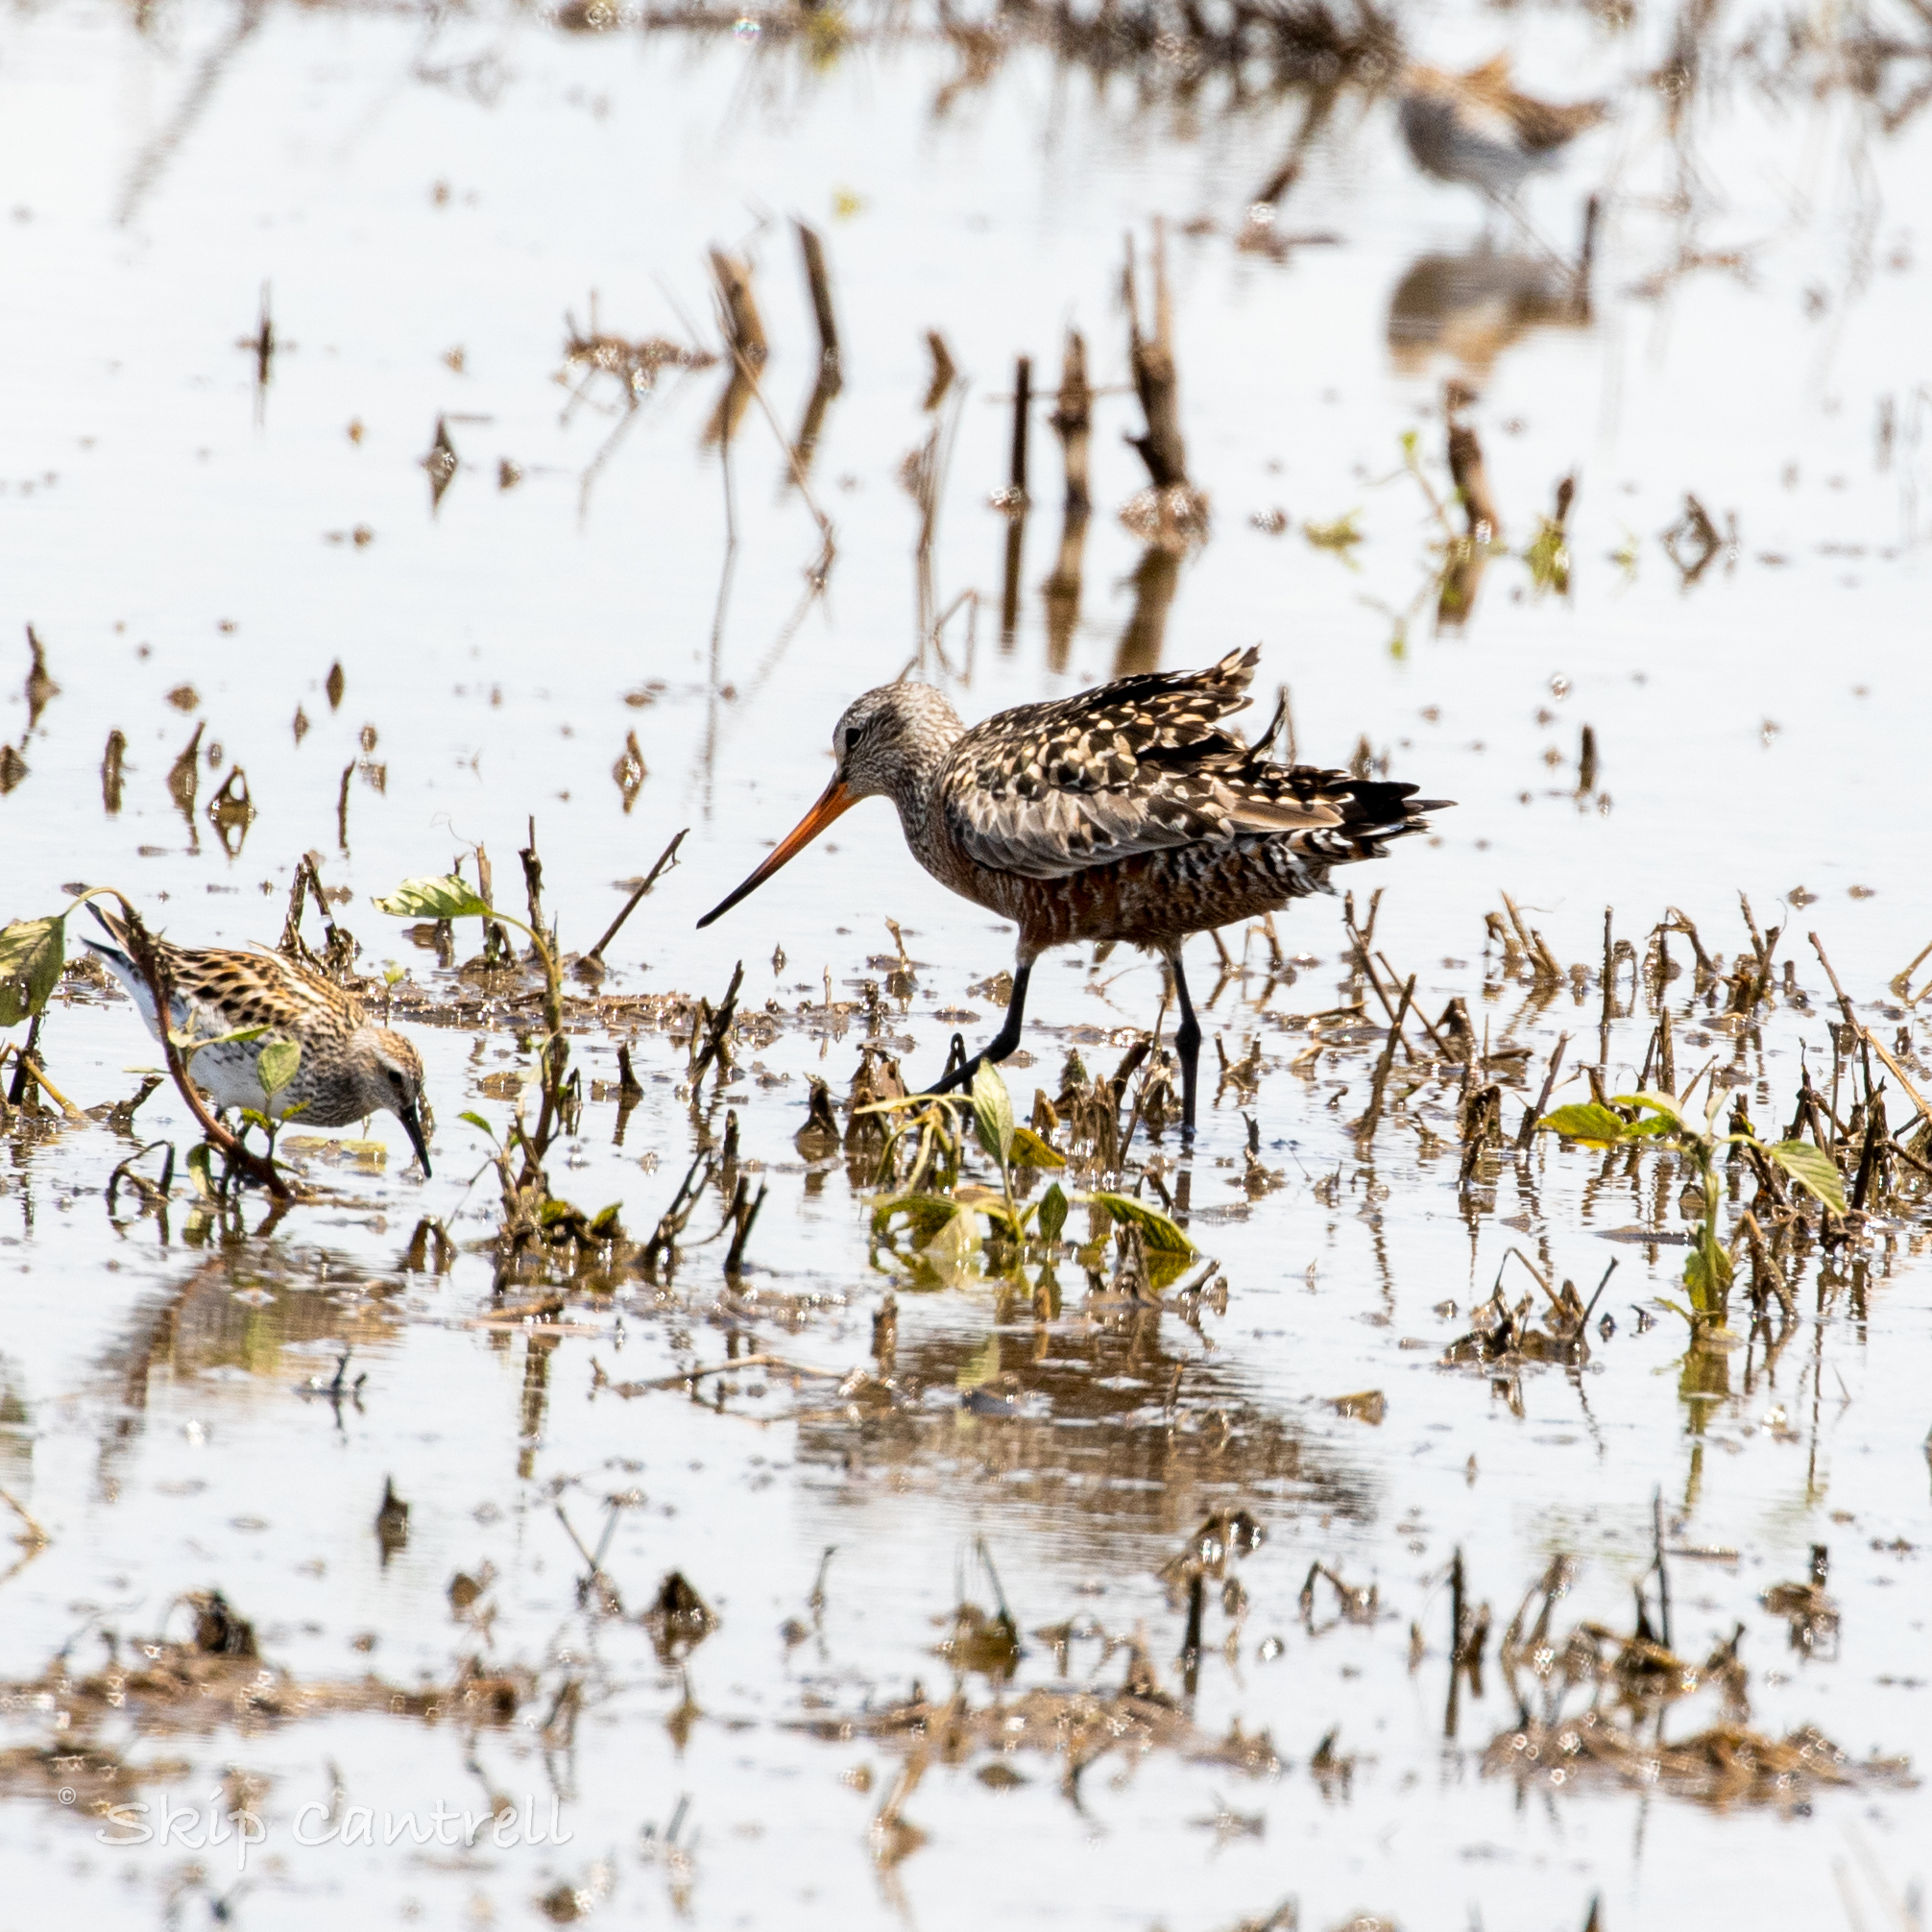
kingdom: Animalia
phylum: Chordata
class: Aves
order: Charadriiformes
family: Scolopacidae
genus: Limosa
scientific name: Limosa haemastica
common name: Hudsonian godwit
